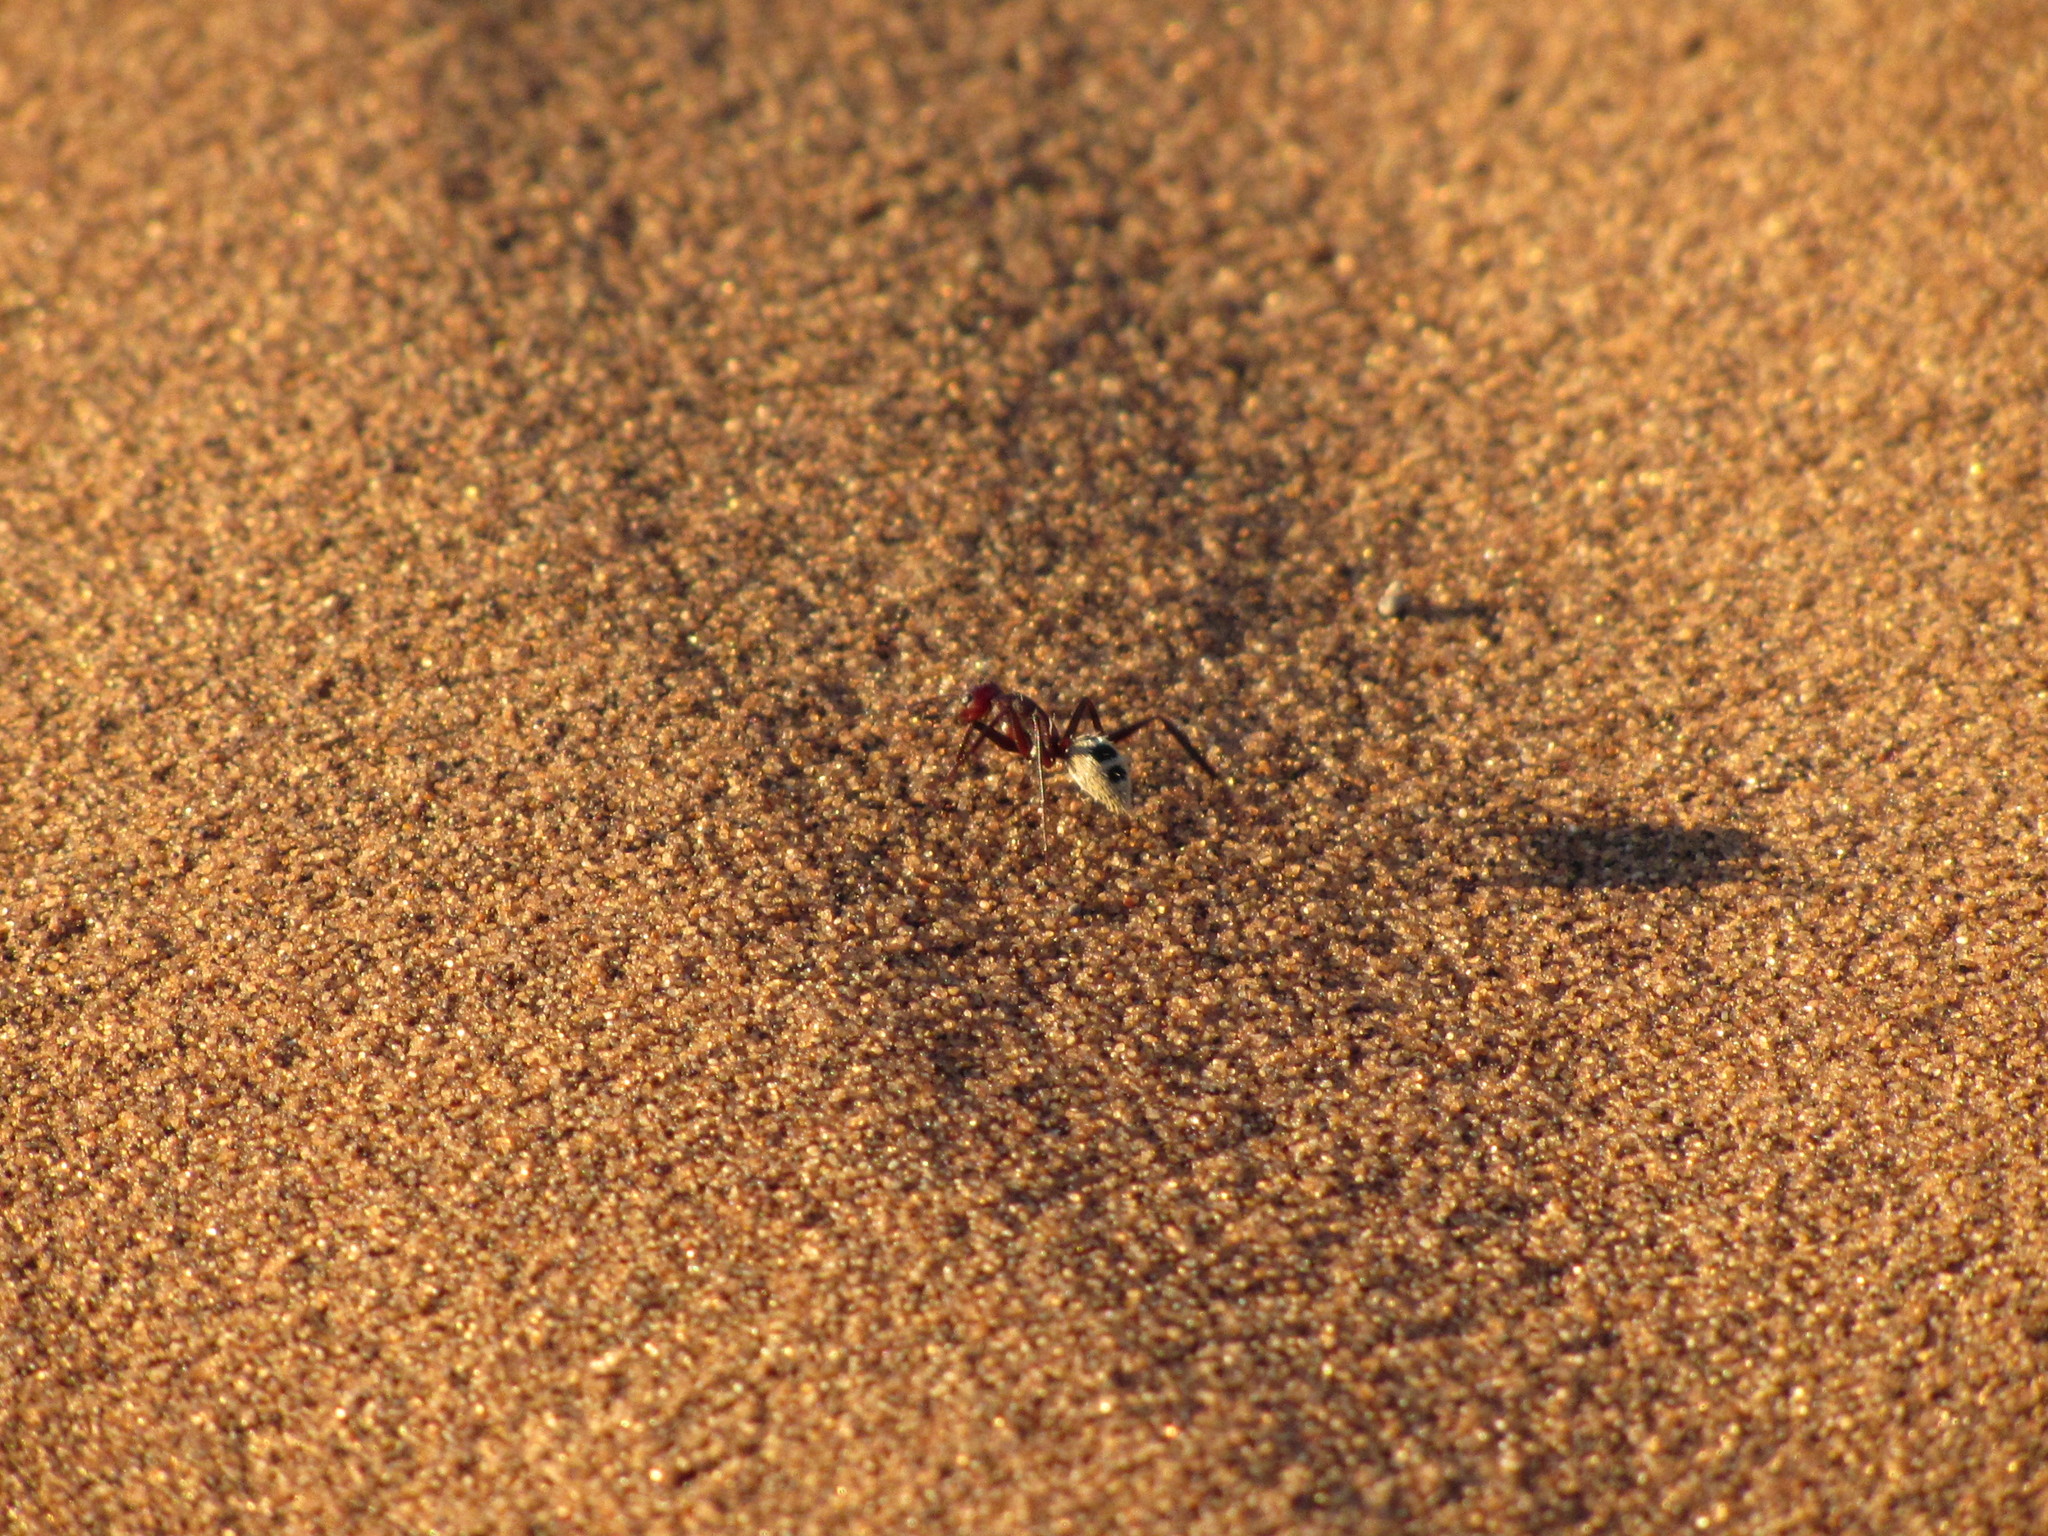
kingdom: Animalia
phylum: Arthropoda
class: Insecta
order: Hymenoptera
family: Formicidae
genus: Camponotus
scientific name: Camponotus detritus
